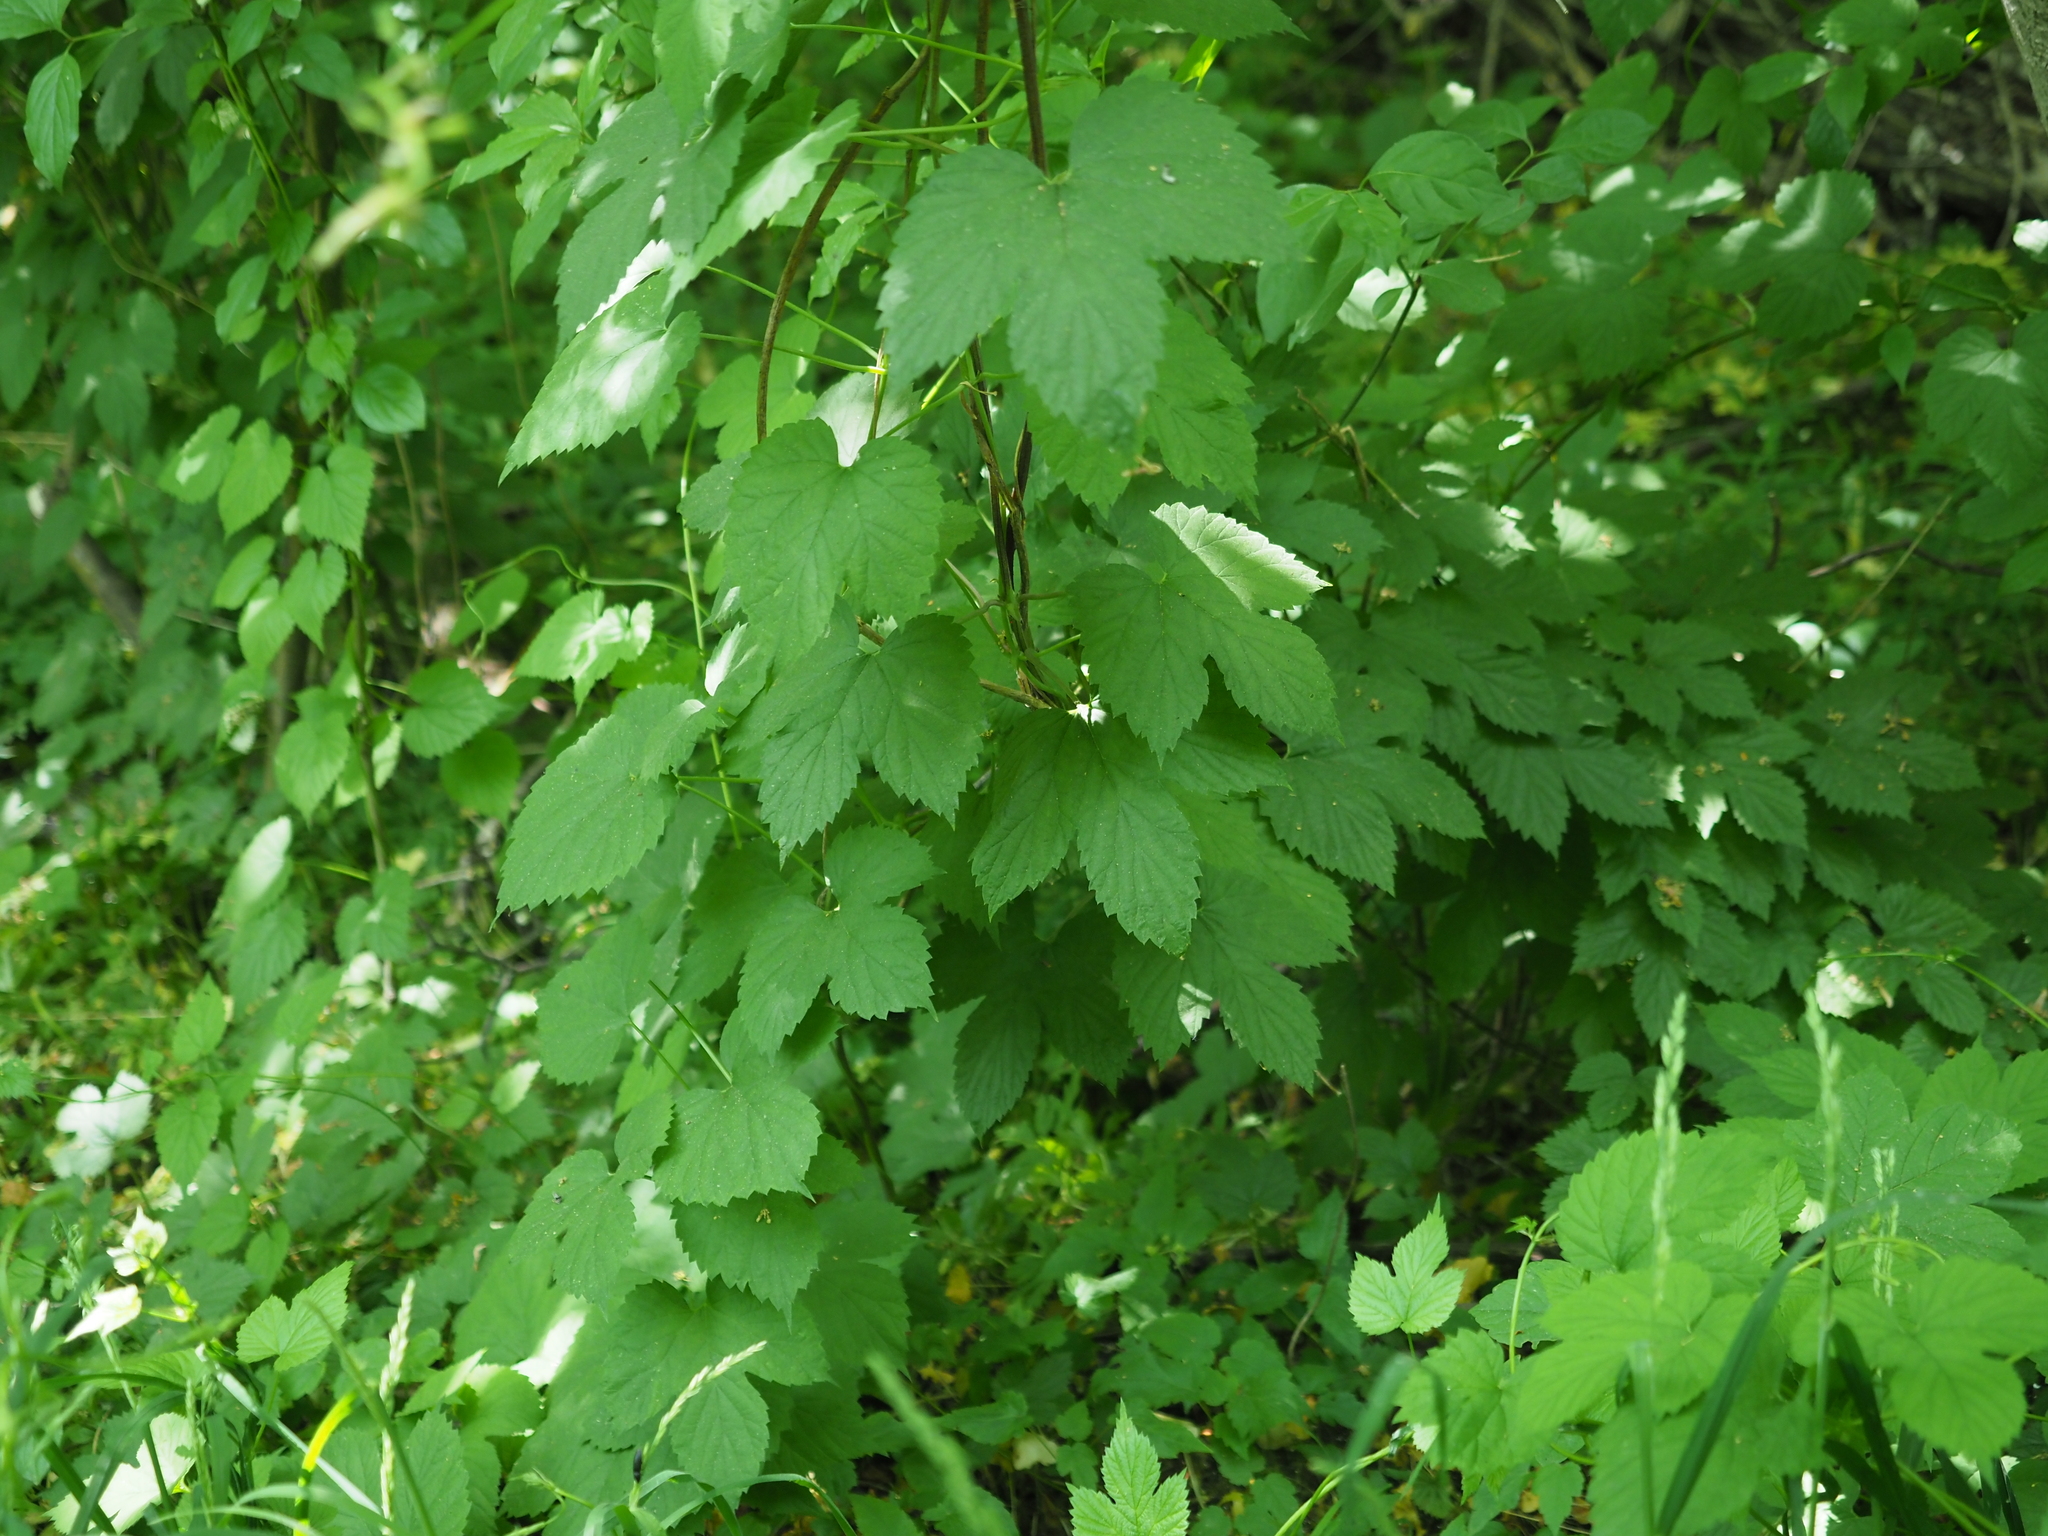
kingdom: Plantae
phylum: Tracheophyta
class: Magnoliopsida
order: Rosales
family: Cannabaceae
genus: Humulus
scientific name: Humulus lupulus
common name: Hop
